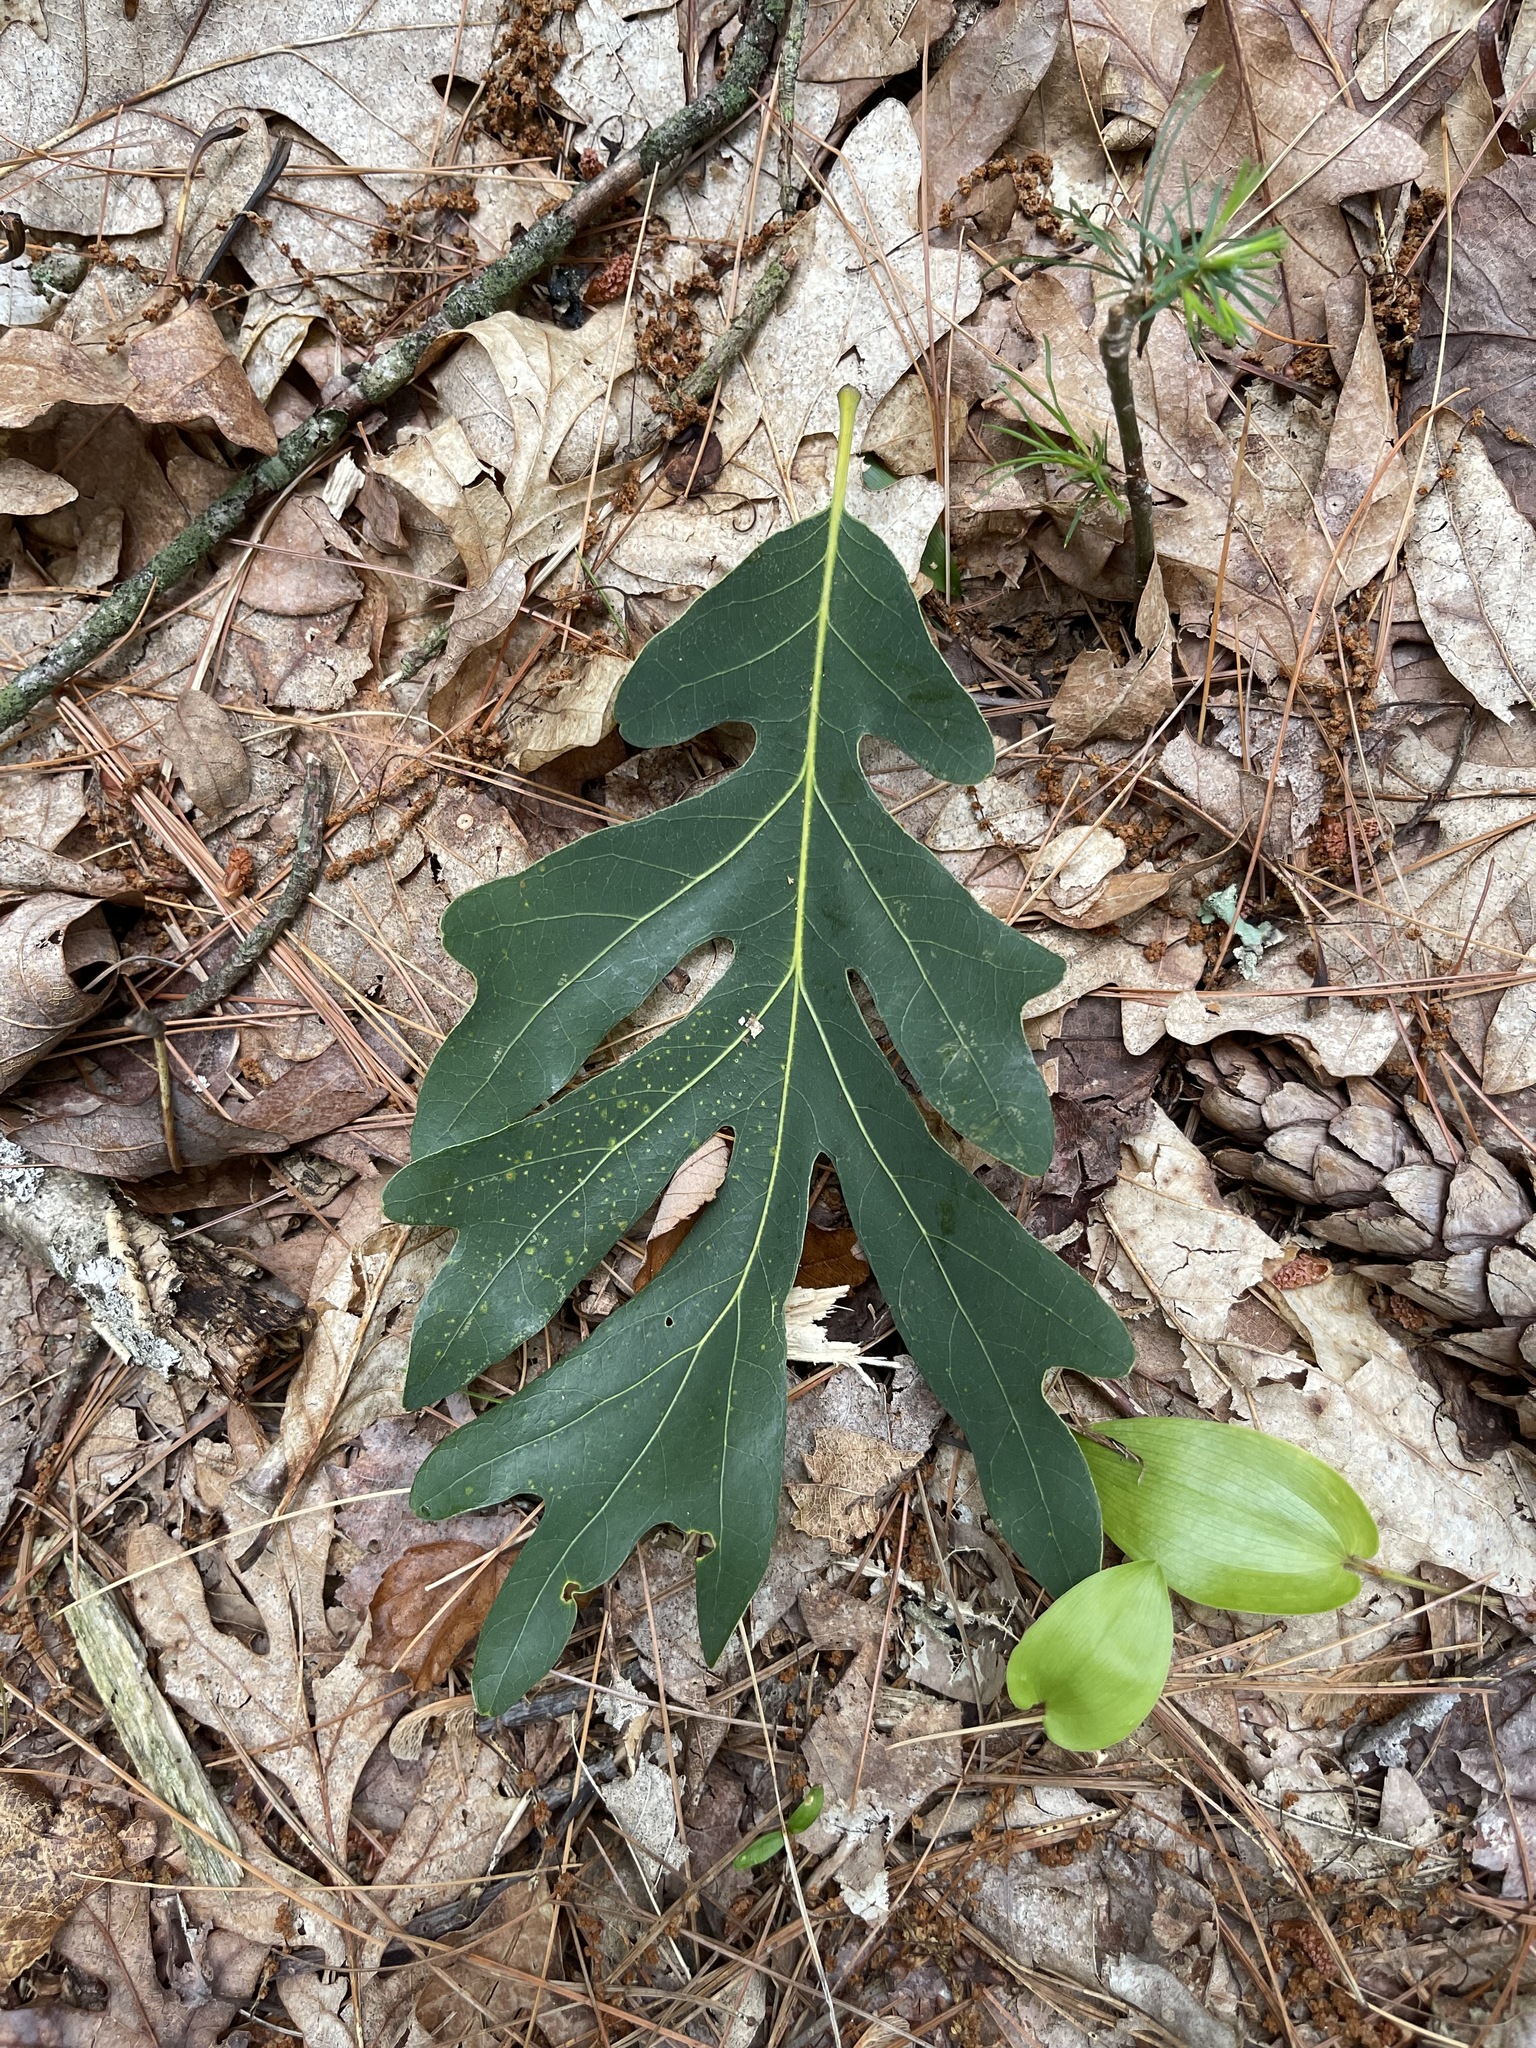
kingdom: Plantae
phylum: Tracheophyta
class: Magnoliopsida
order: Fagales
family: Fagaceae
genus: Quercus
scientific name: Quercus alba
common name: White oak
